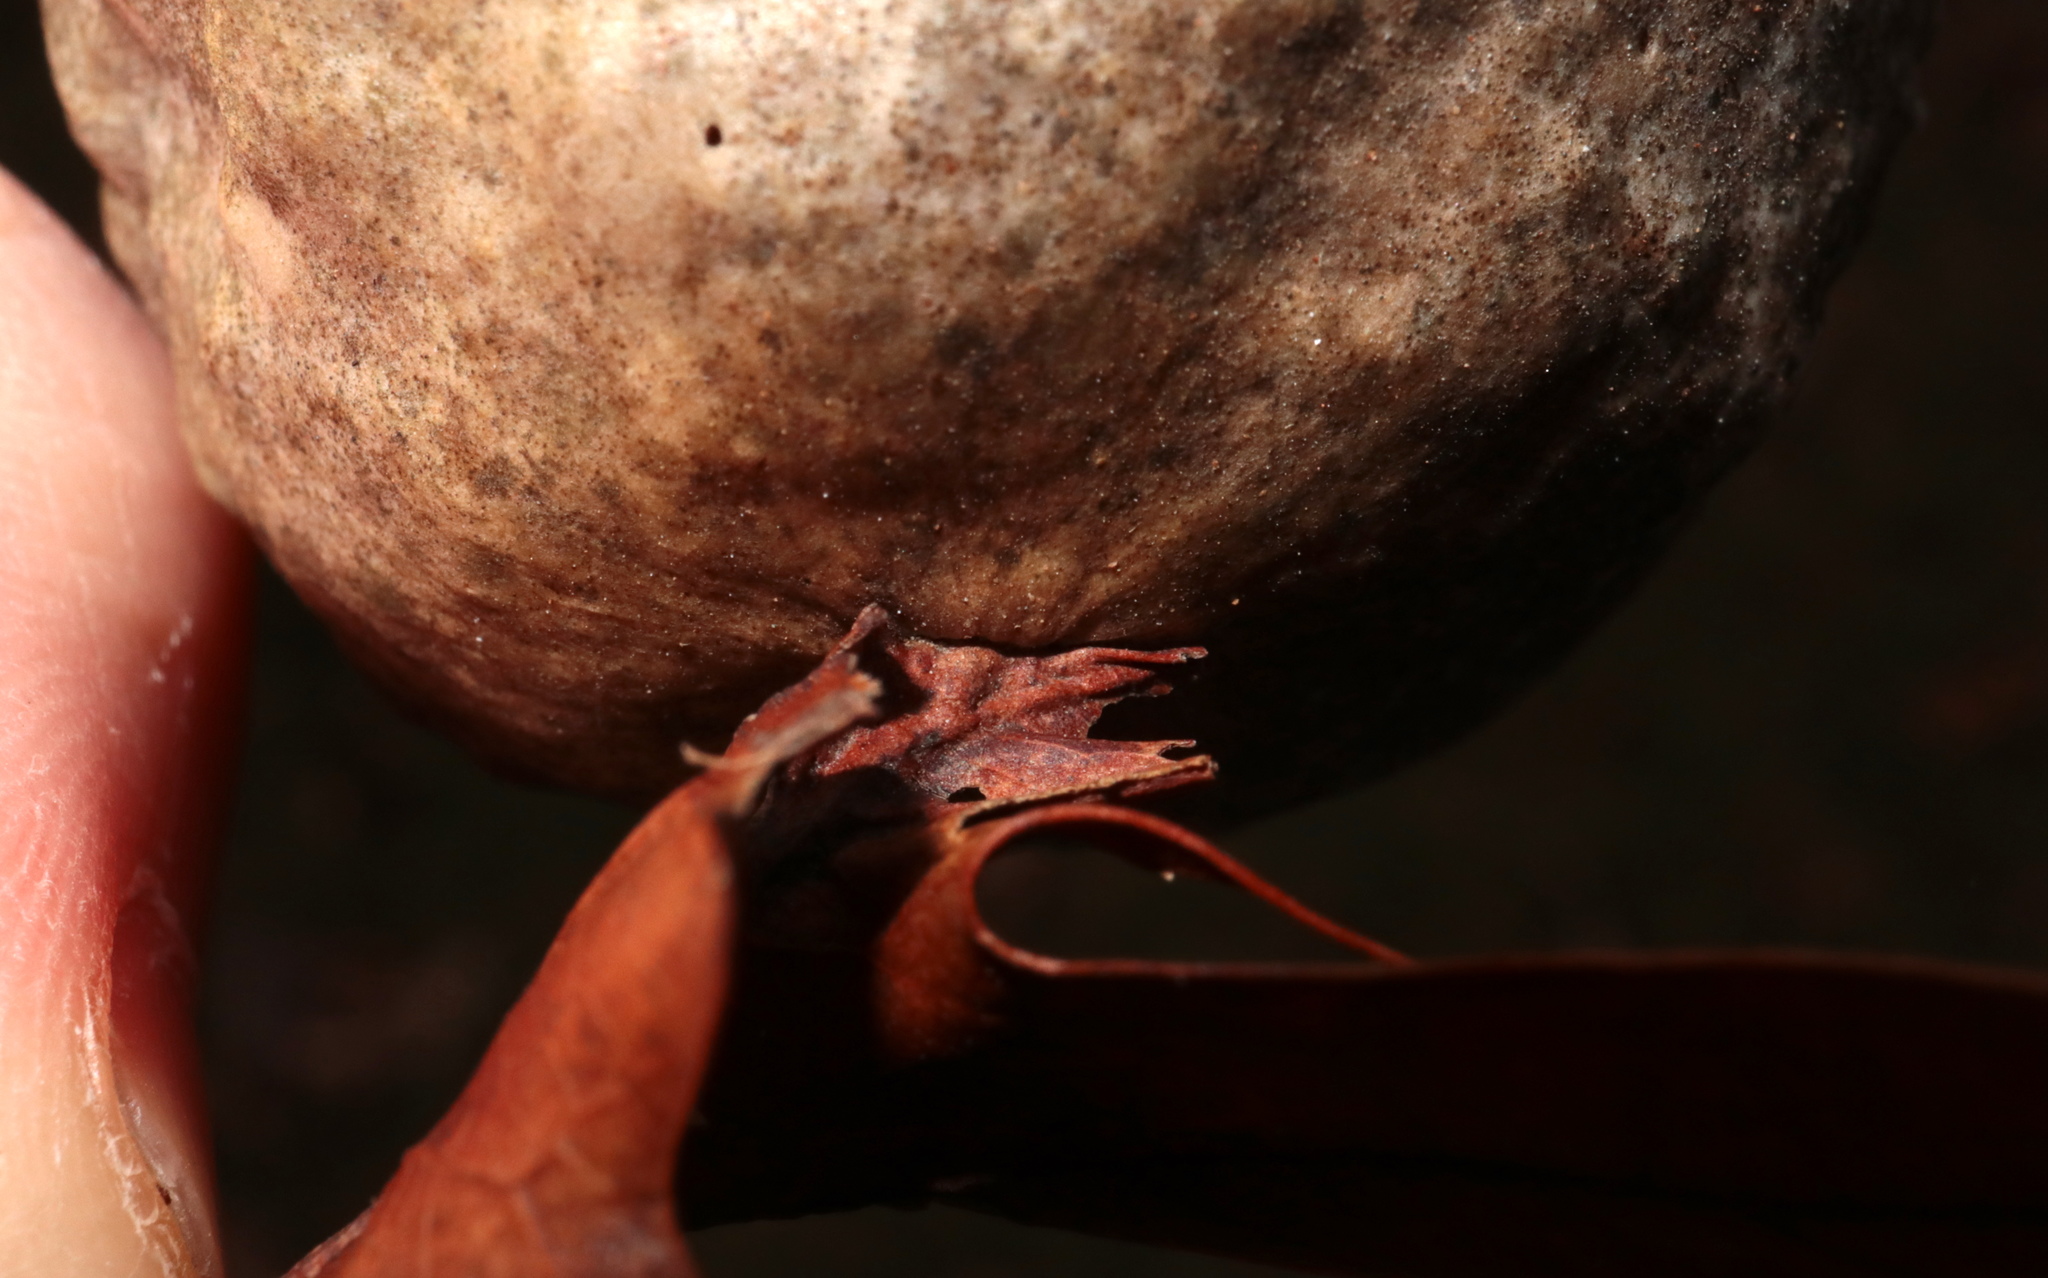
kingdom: Animalia
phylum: Arthropoda
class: Insecta
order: Hymenoptera
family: Cynipidae
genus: Amphibolips
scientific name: Amphibolips
